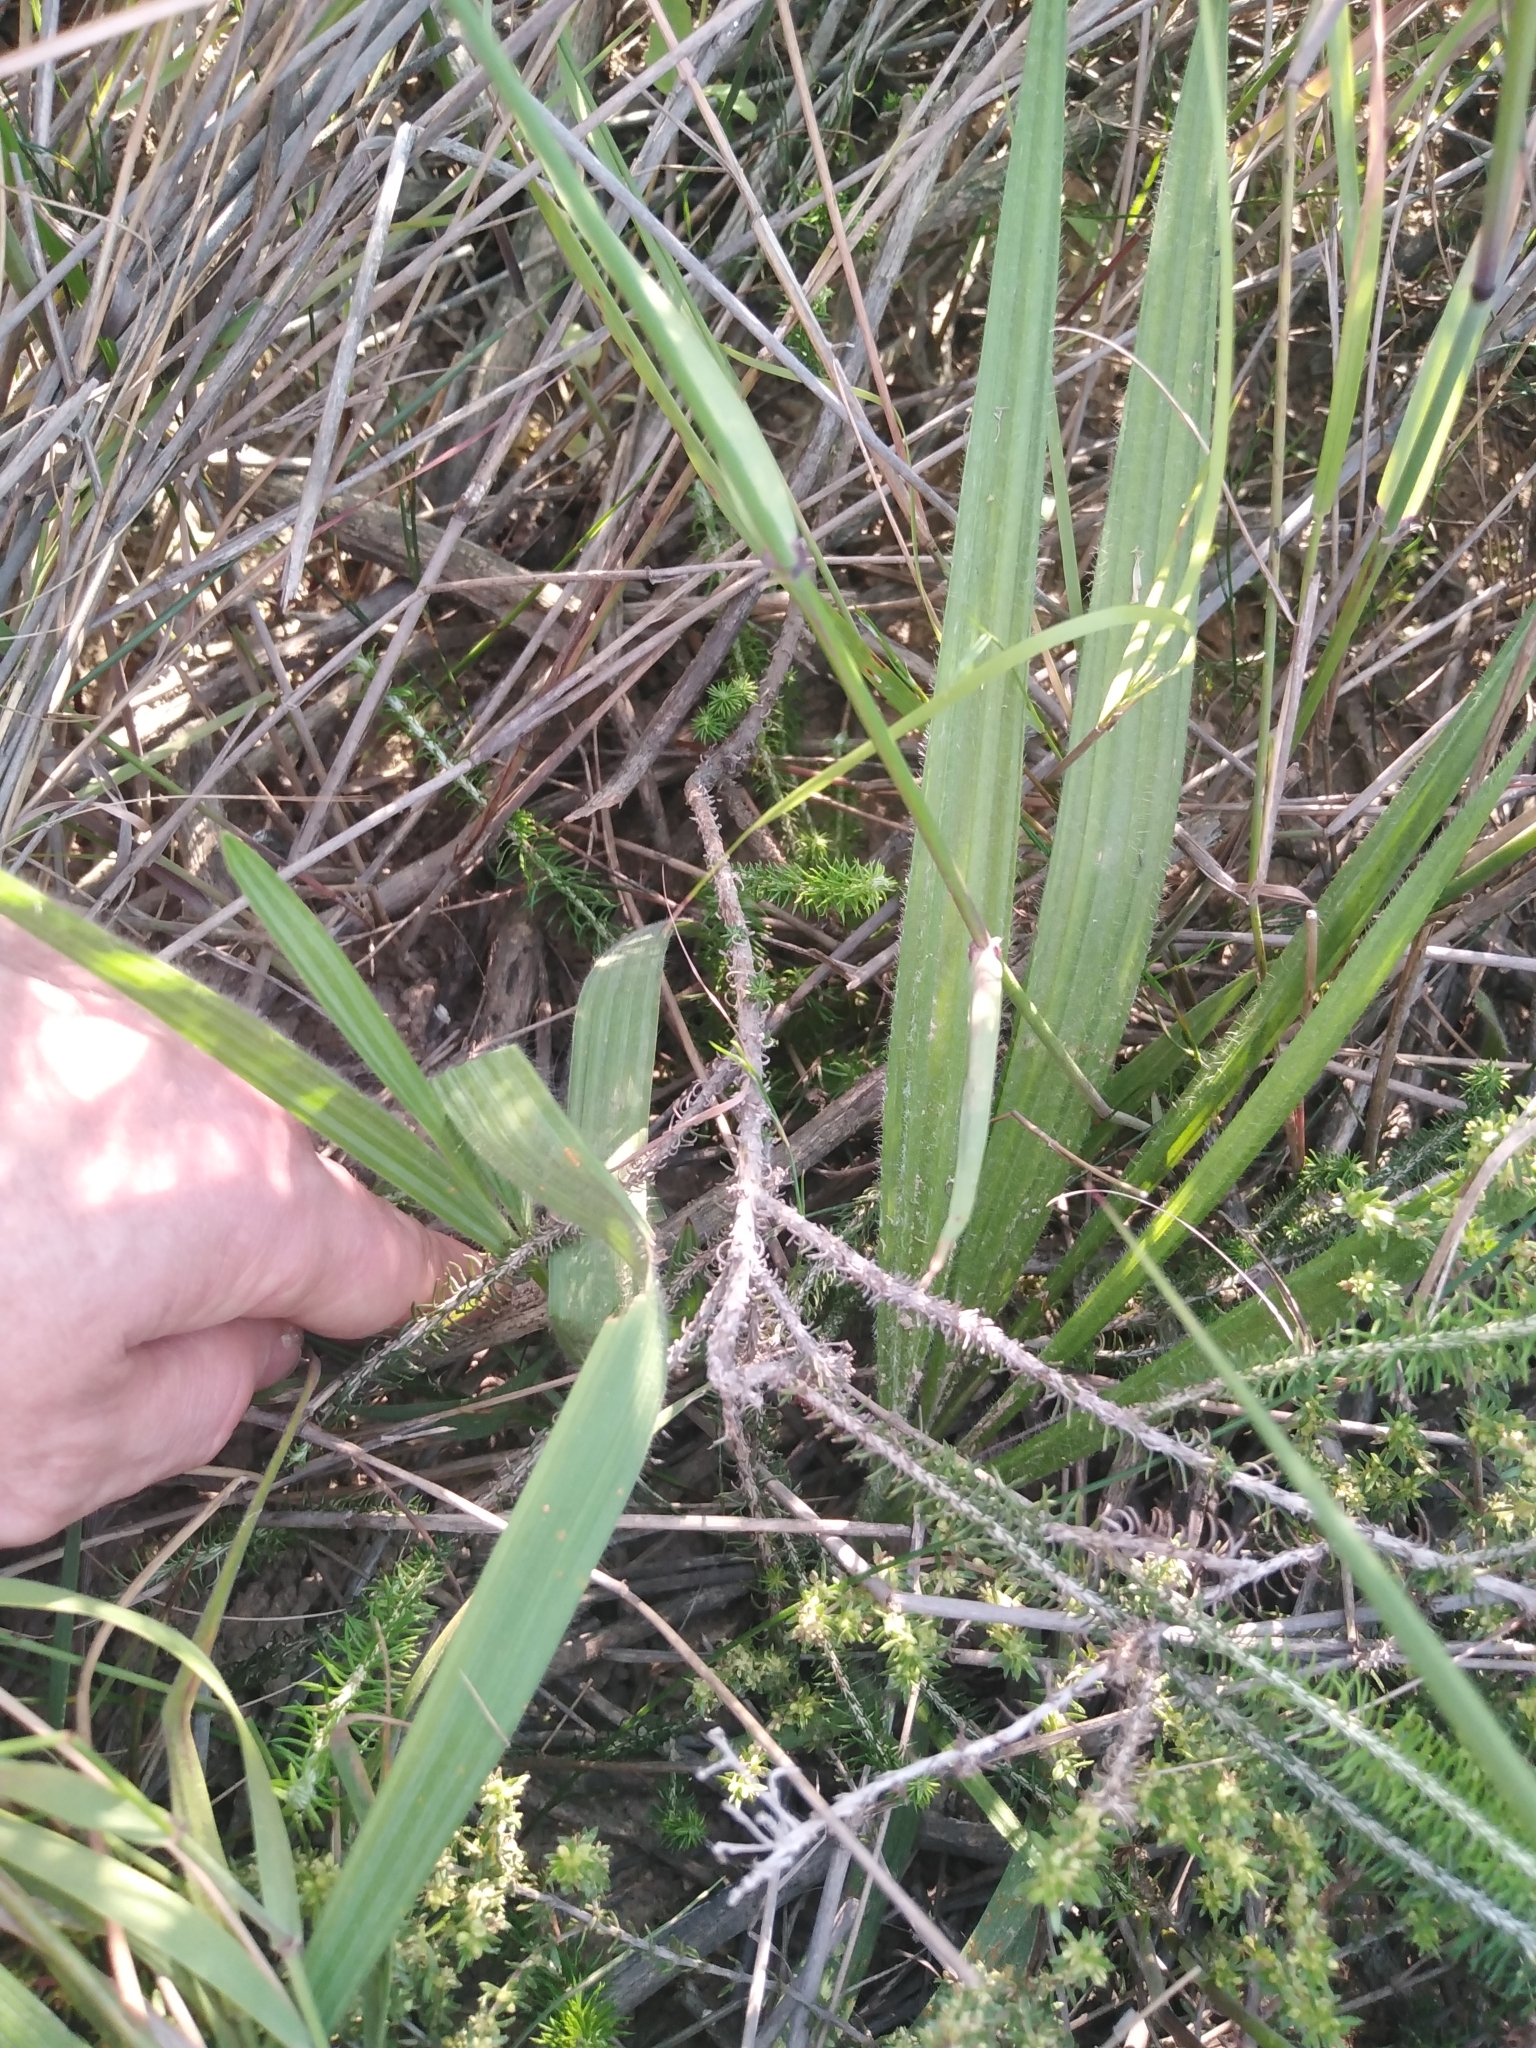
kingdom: Plantae
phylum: Tracheophyta
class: Magnoliopsida
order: Asterales
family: Asteraceae
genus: Helichrysum
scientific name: Helichrysum teretifolium
